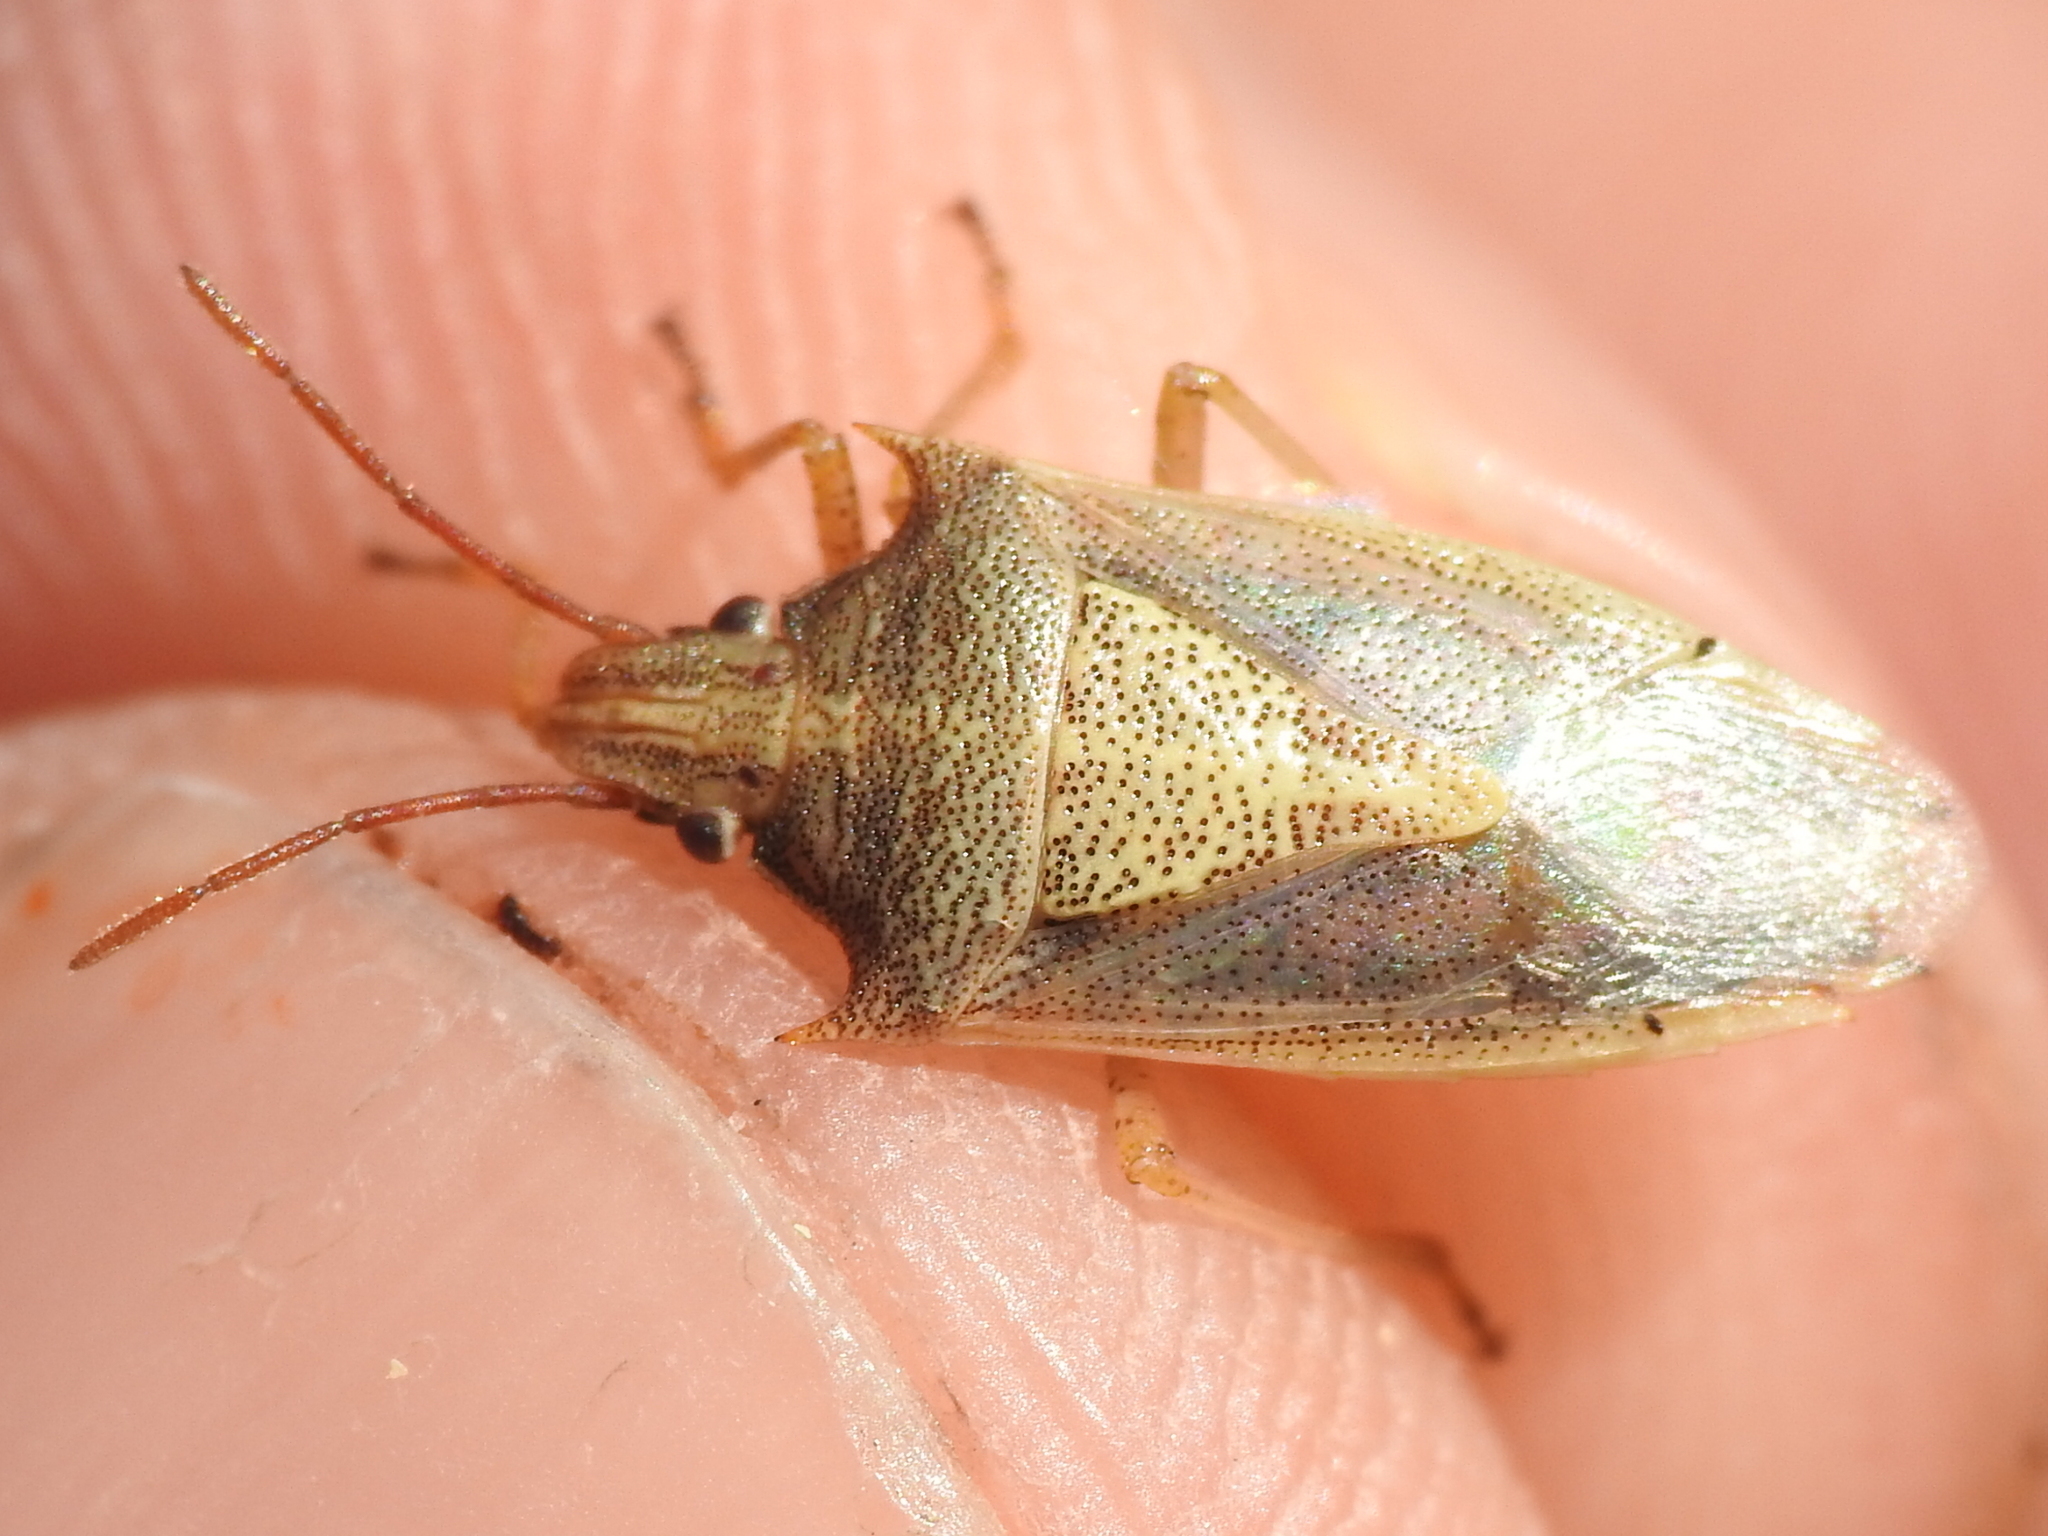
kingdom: Animalia
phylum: Arthropoda
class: Insecta
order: Hemiptera
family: Pentatomidae
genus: Oebalus
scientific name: Oebalus pugnax
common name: Rice stink bug
